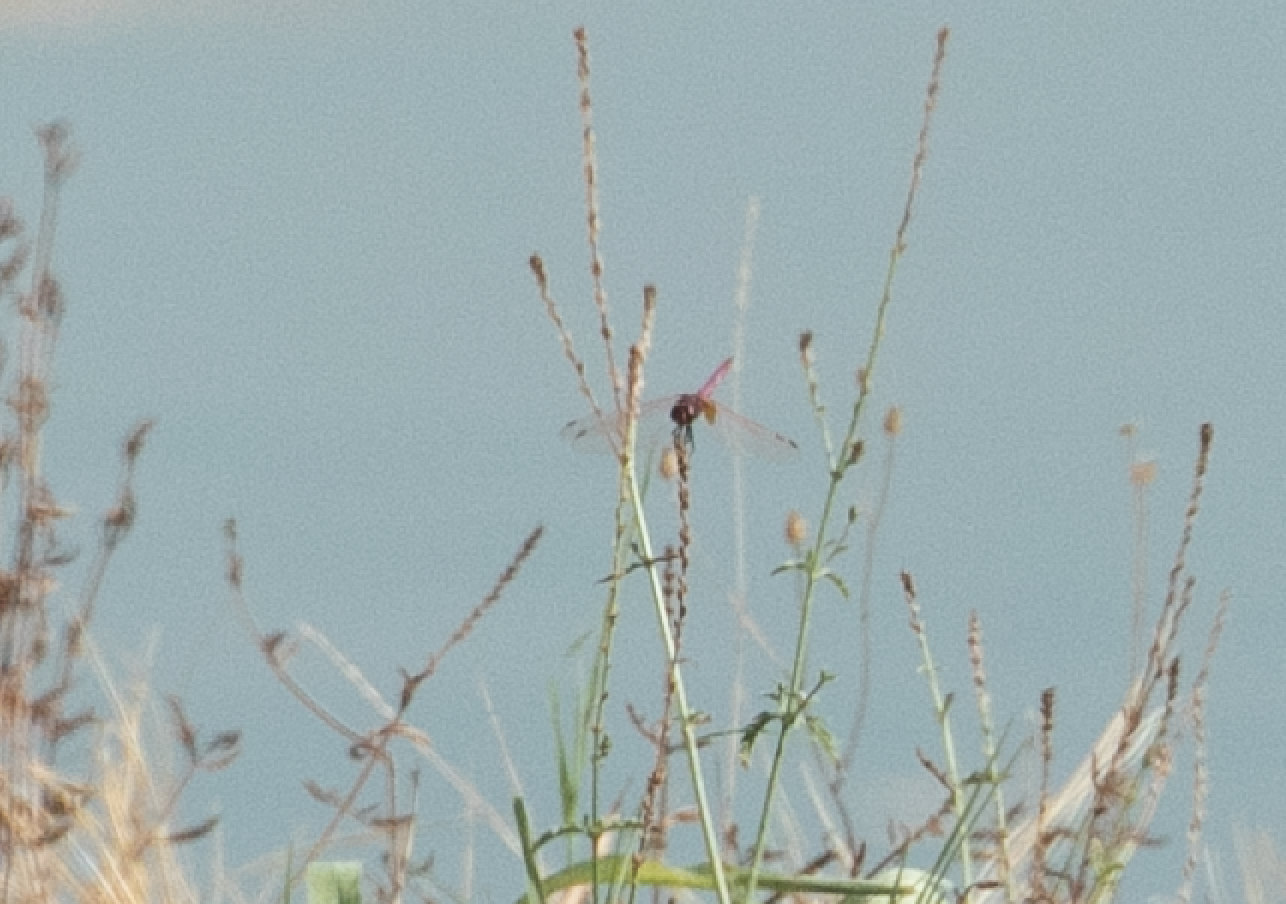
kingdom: Animalia
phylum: Arthropoda
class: Insecta
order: Odonata
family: Libellulidae
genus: Trithemis
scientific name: Trithemis annulata
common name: Violet dropwing
